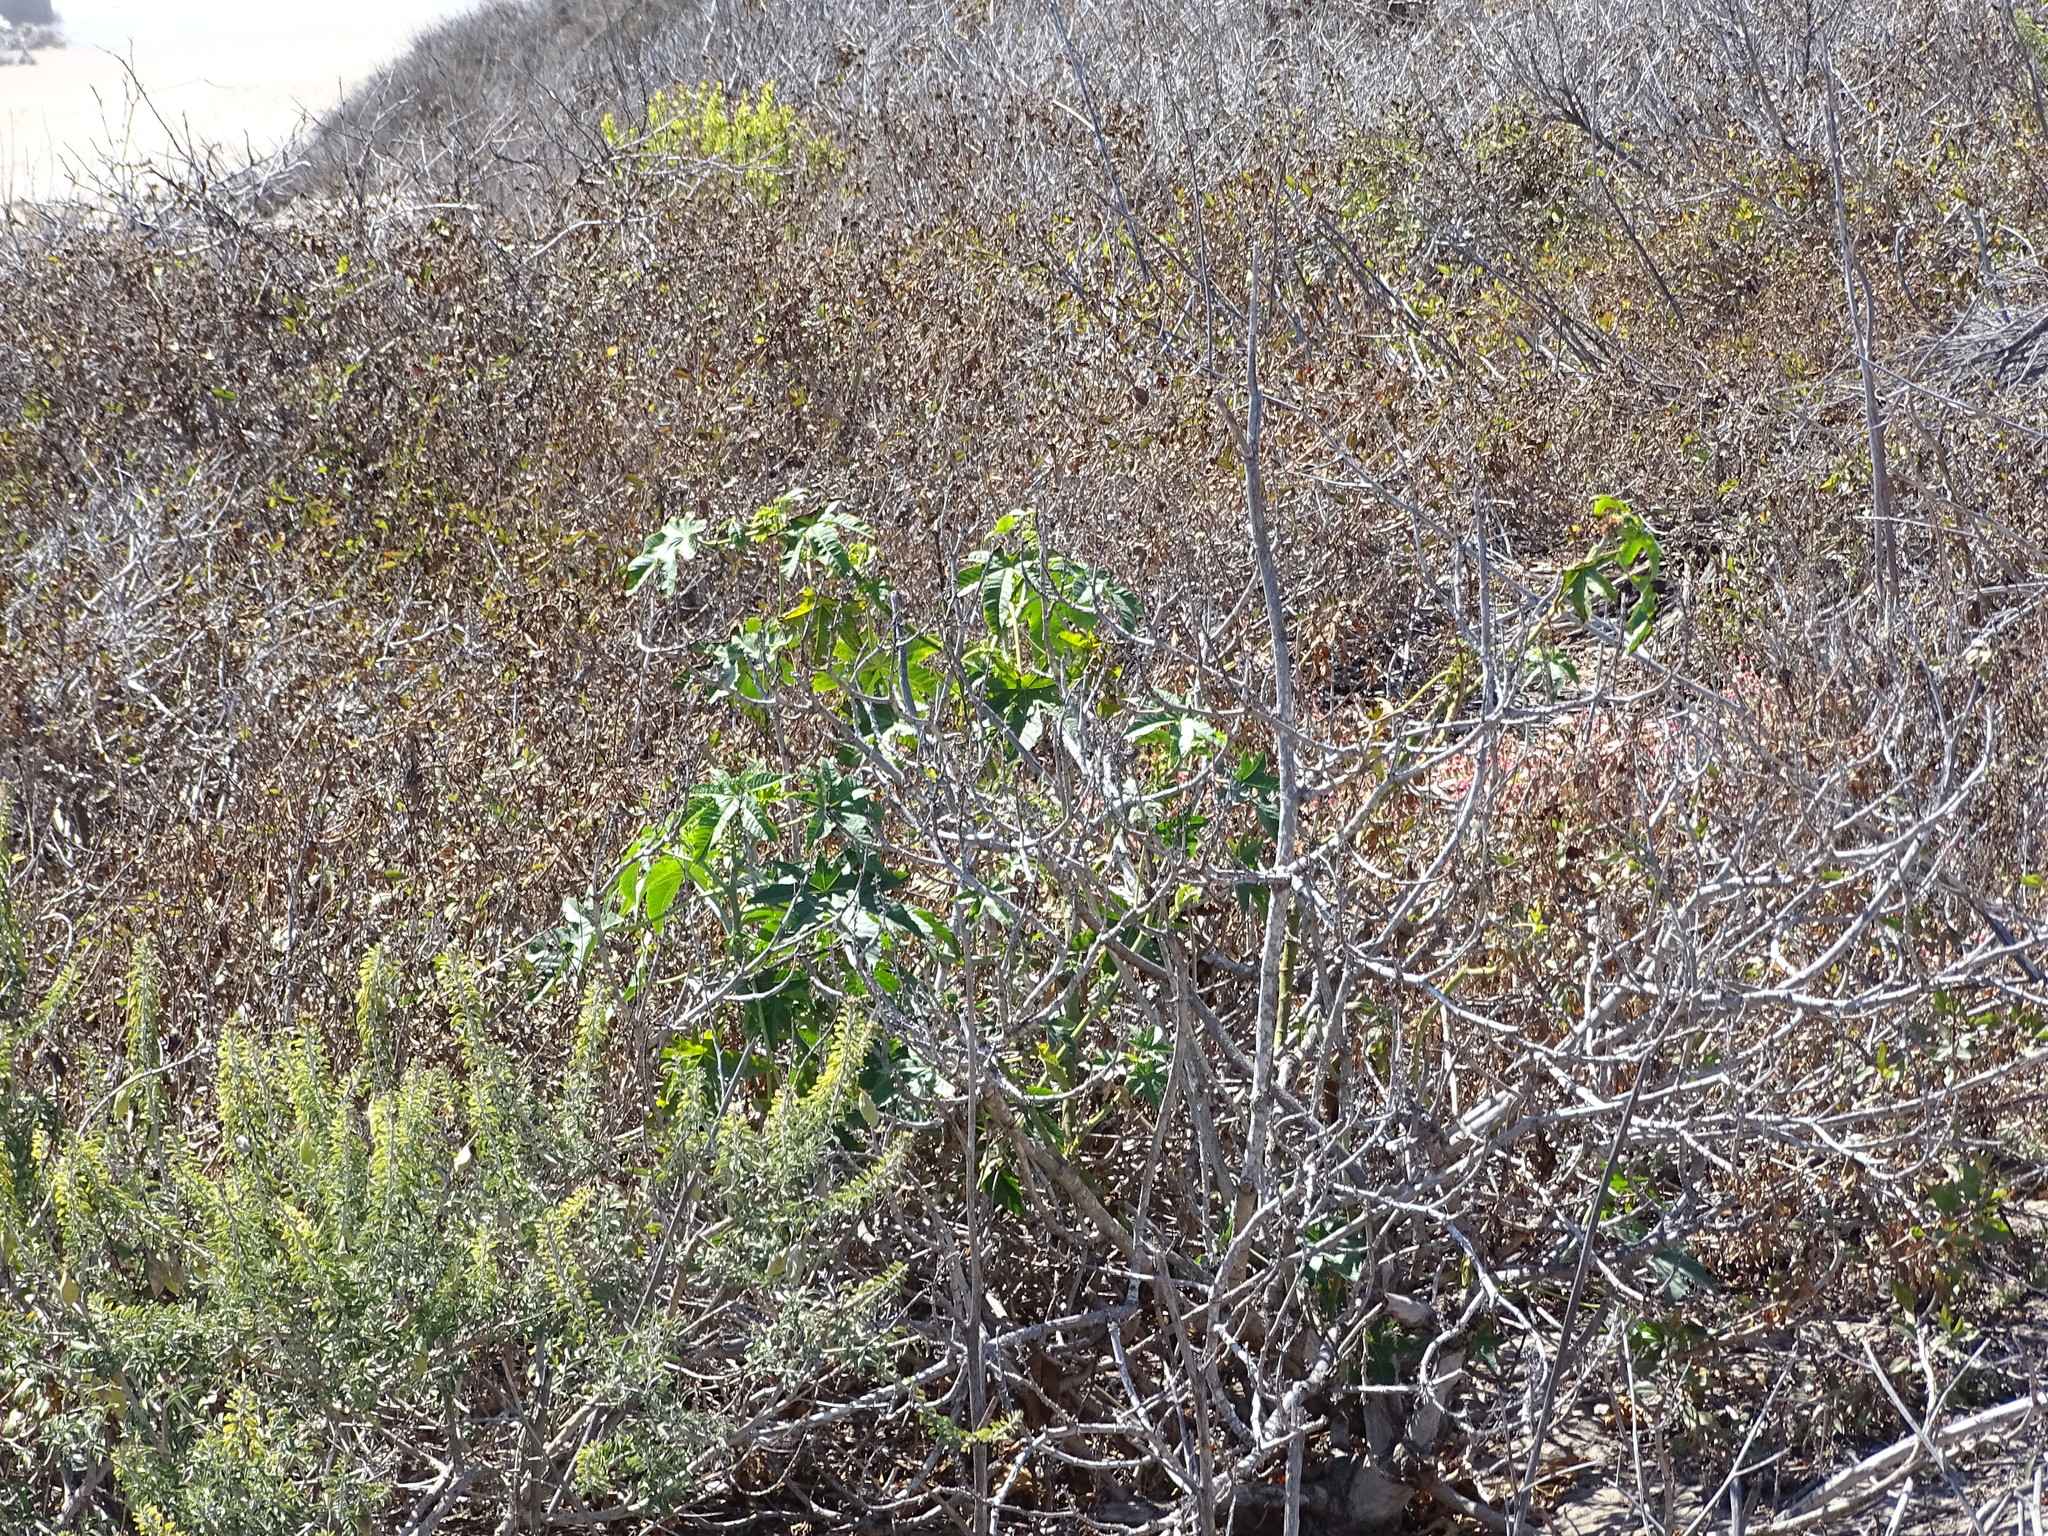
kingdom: Plantae
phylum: Tracheophyta
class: Magnoliopsida
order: Malpighiales
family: Euphorbiaceae
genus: Ricinus
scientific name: Ricinus communis
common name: Castor-oil-plant
